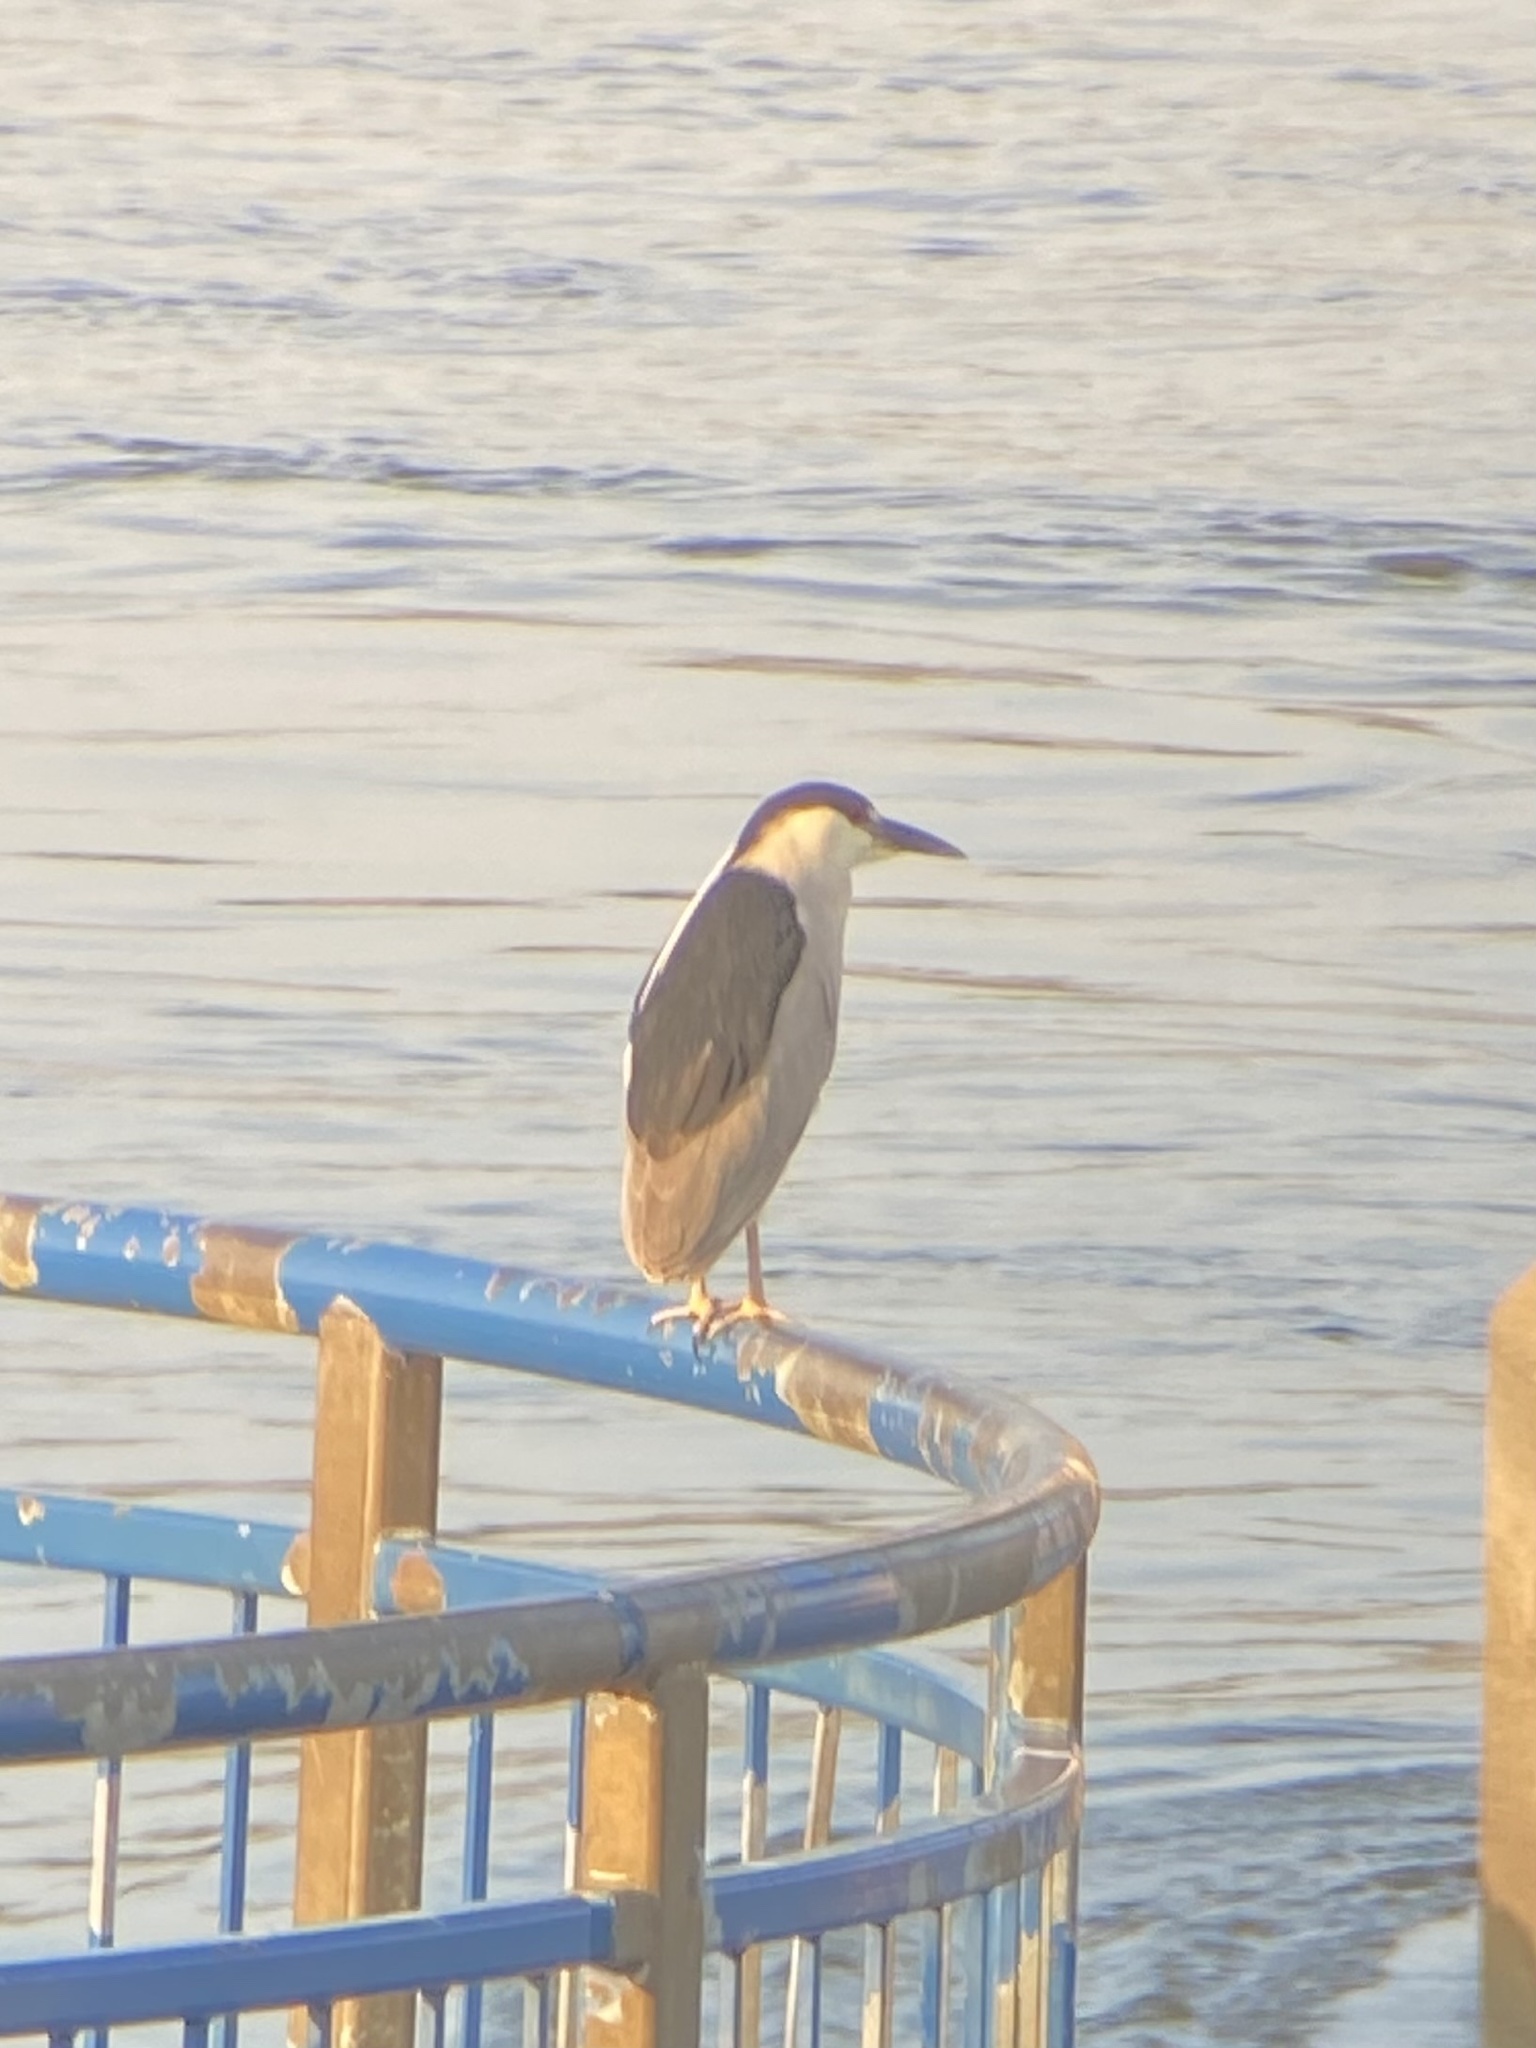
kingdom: Animalia
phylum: Chordata
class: Aves
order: Pelecaniformes
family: Ardeidae
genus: Nycticorax
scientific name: Nycticorax nycticorax
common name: Black-crowned night heron
